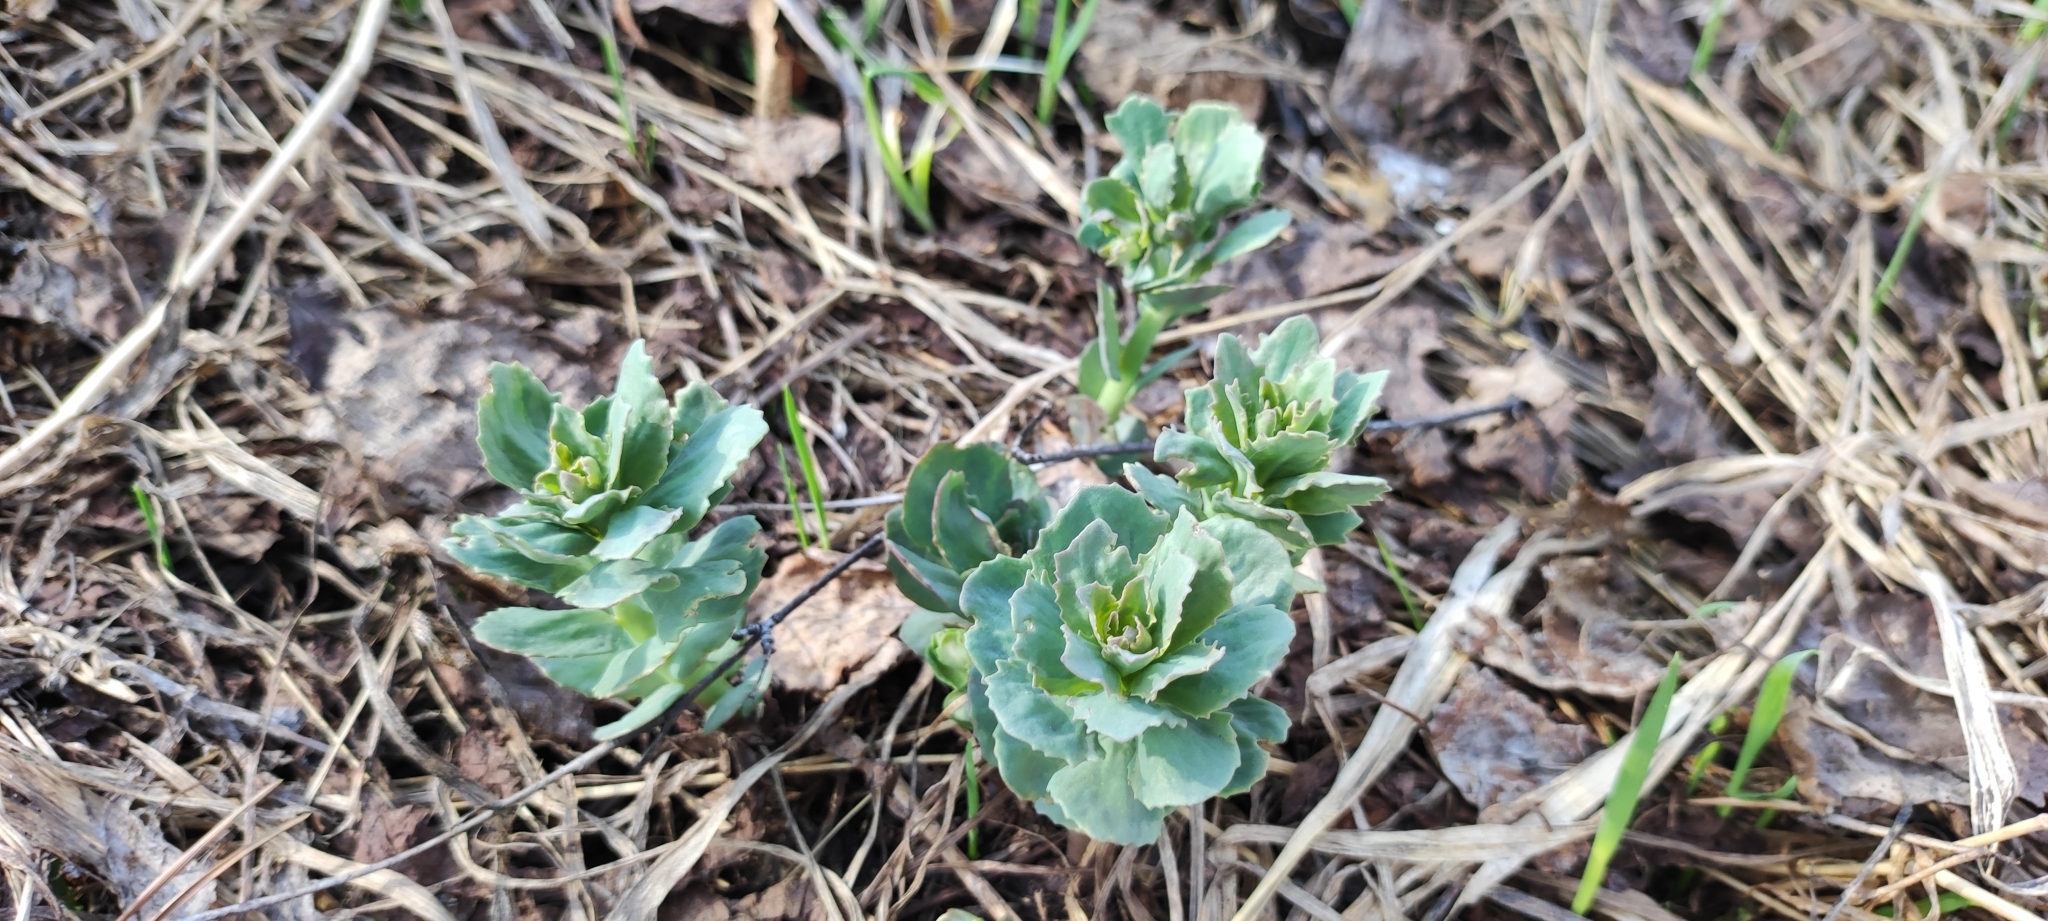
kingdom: Plantae
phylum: Tracheophyta
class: Magnoliopsida
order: Saxifragales
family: Crassulaceae
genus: Hylotelephium
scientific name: Hylotelephium telephium
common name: Live-forever
